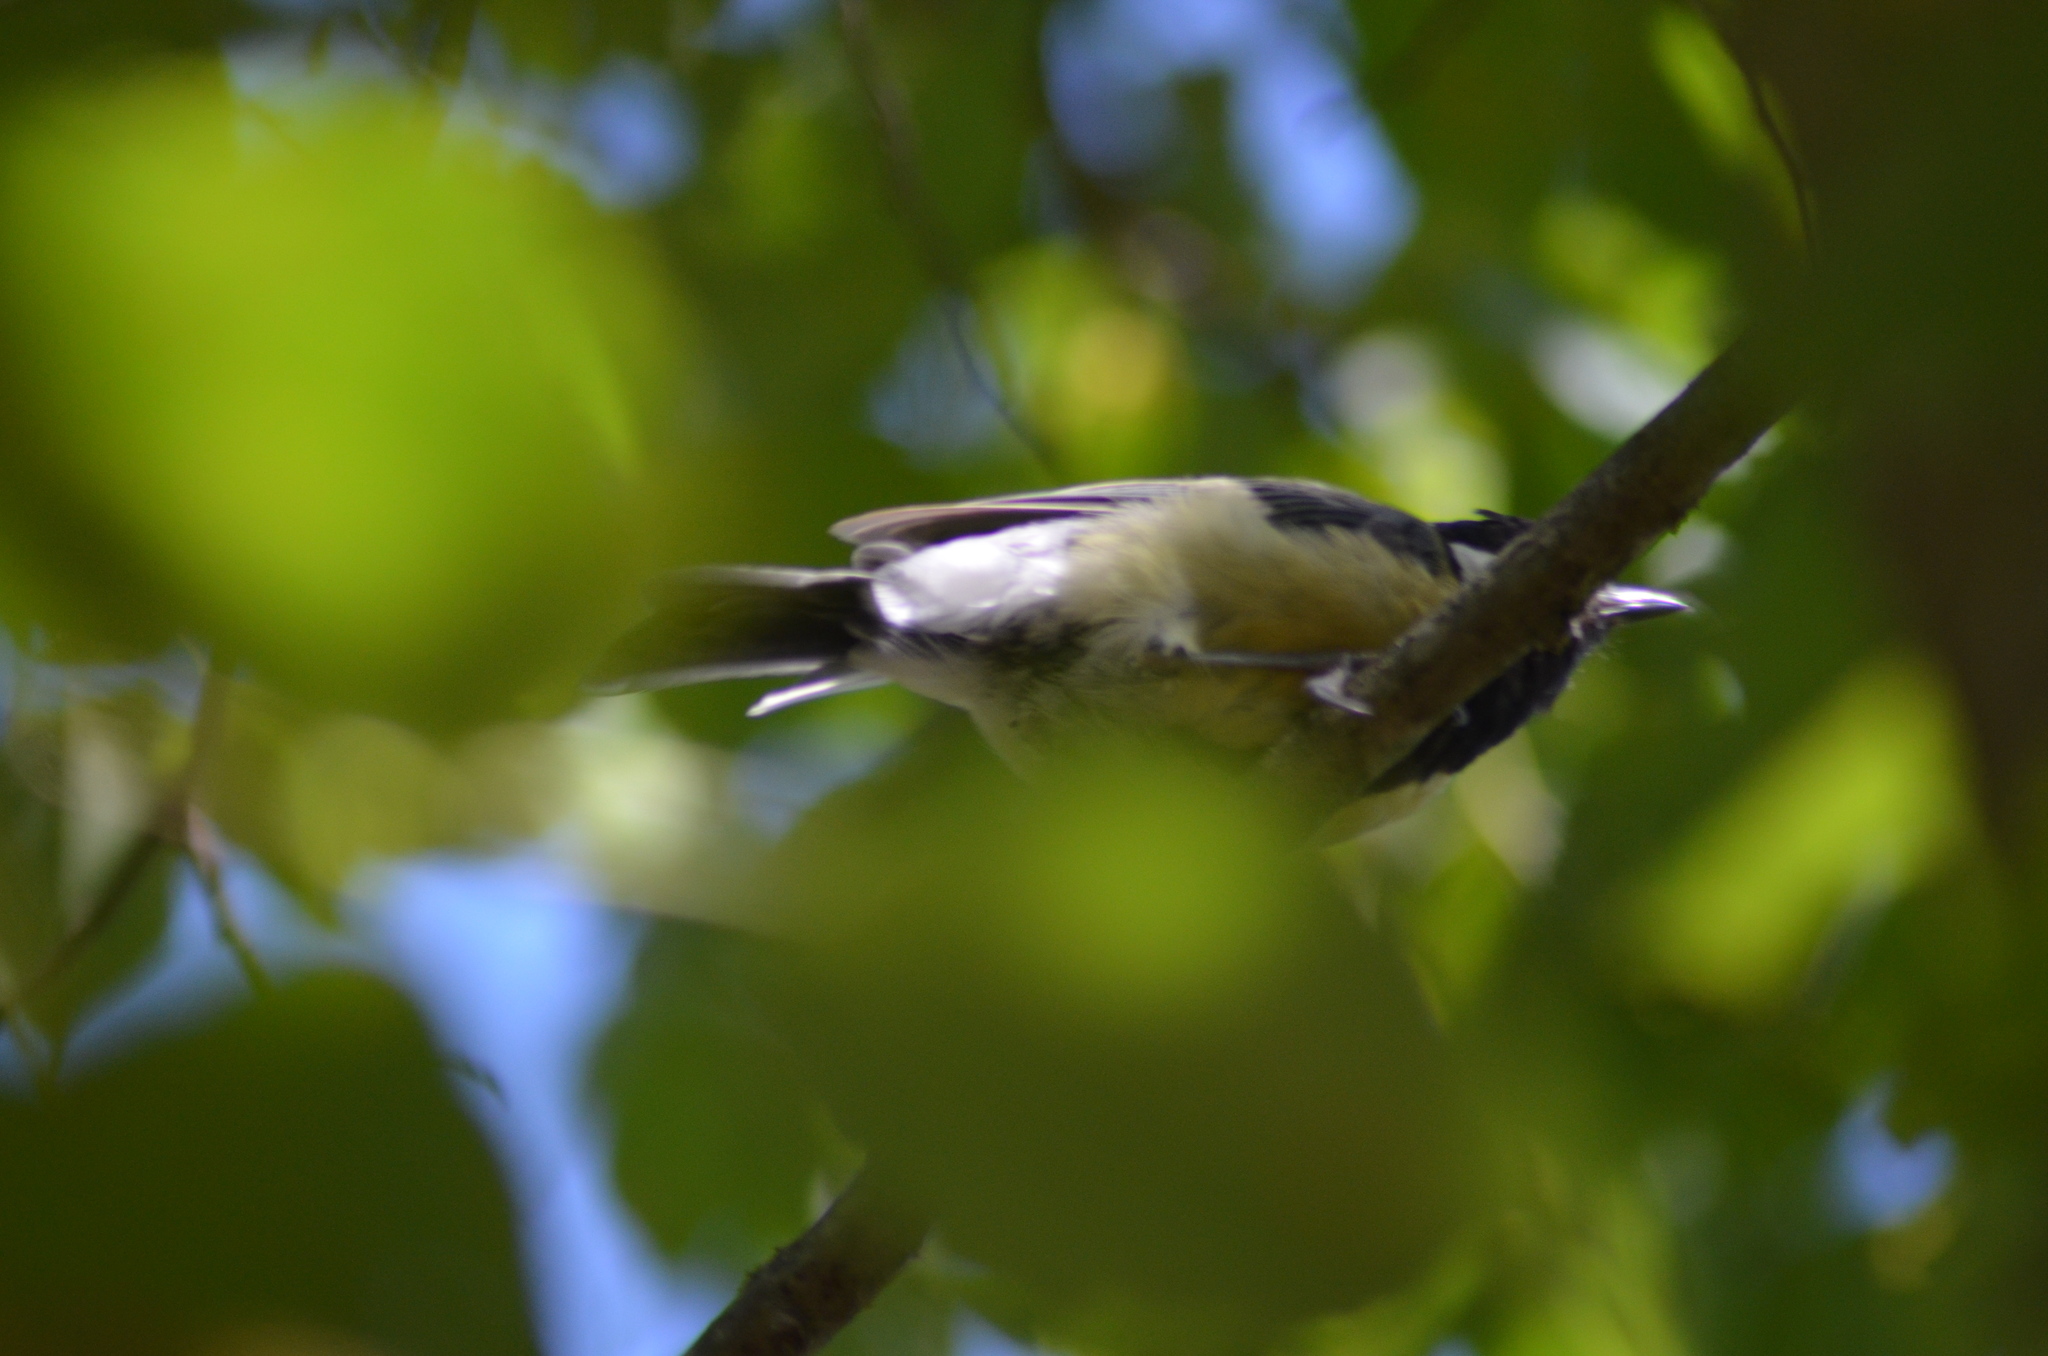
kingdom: Animalia
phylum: Chordata
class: Aves
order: Passeriformes
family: Paridae
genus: Parus
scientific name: Parus major
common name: Great tit
